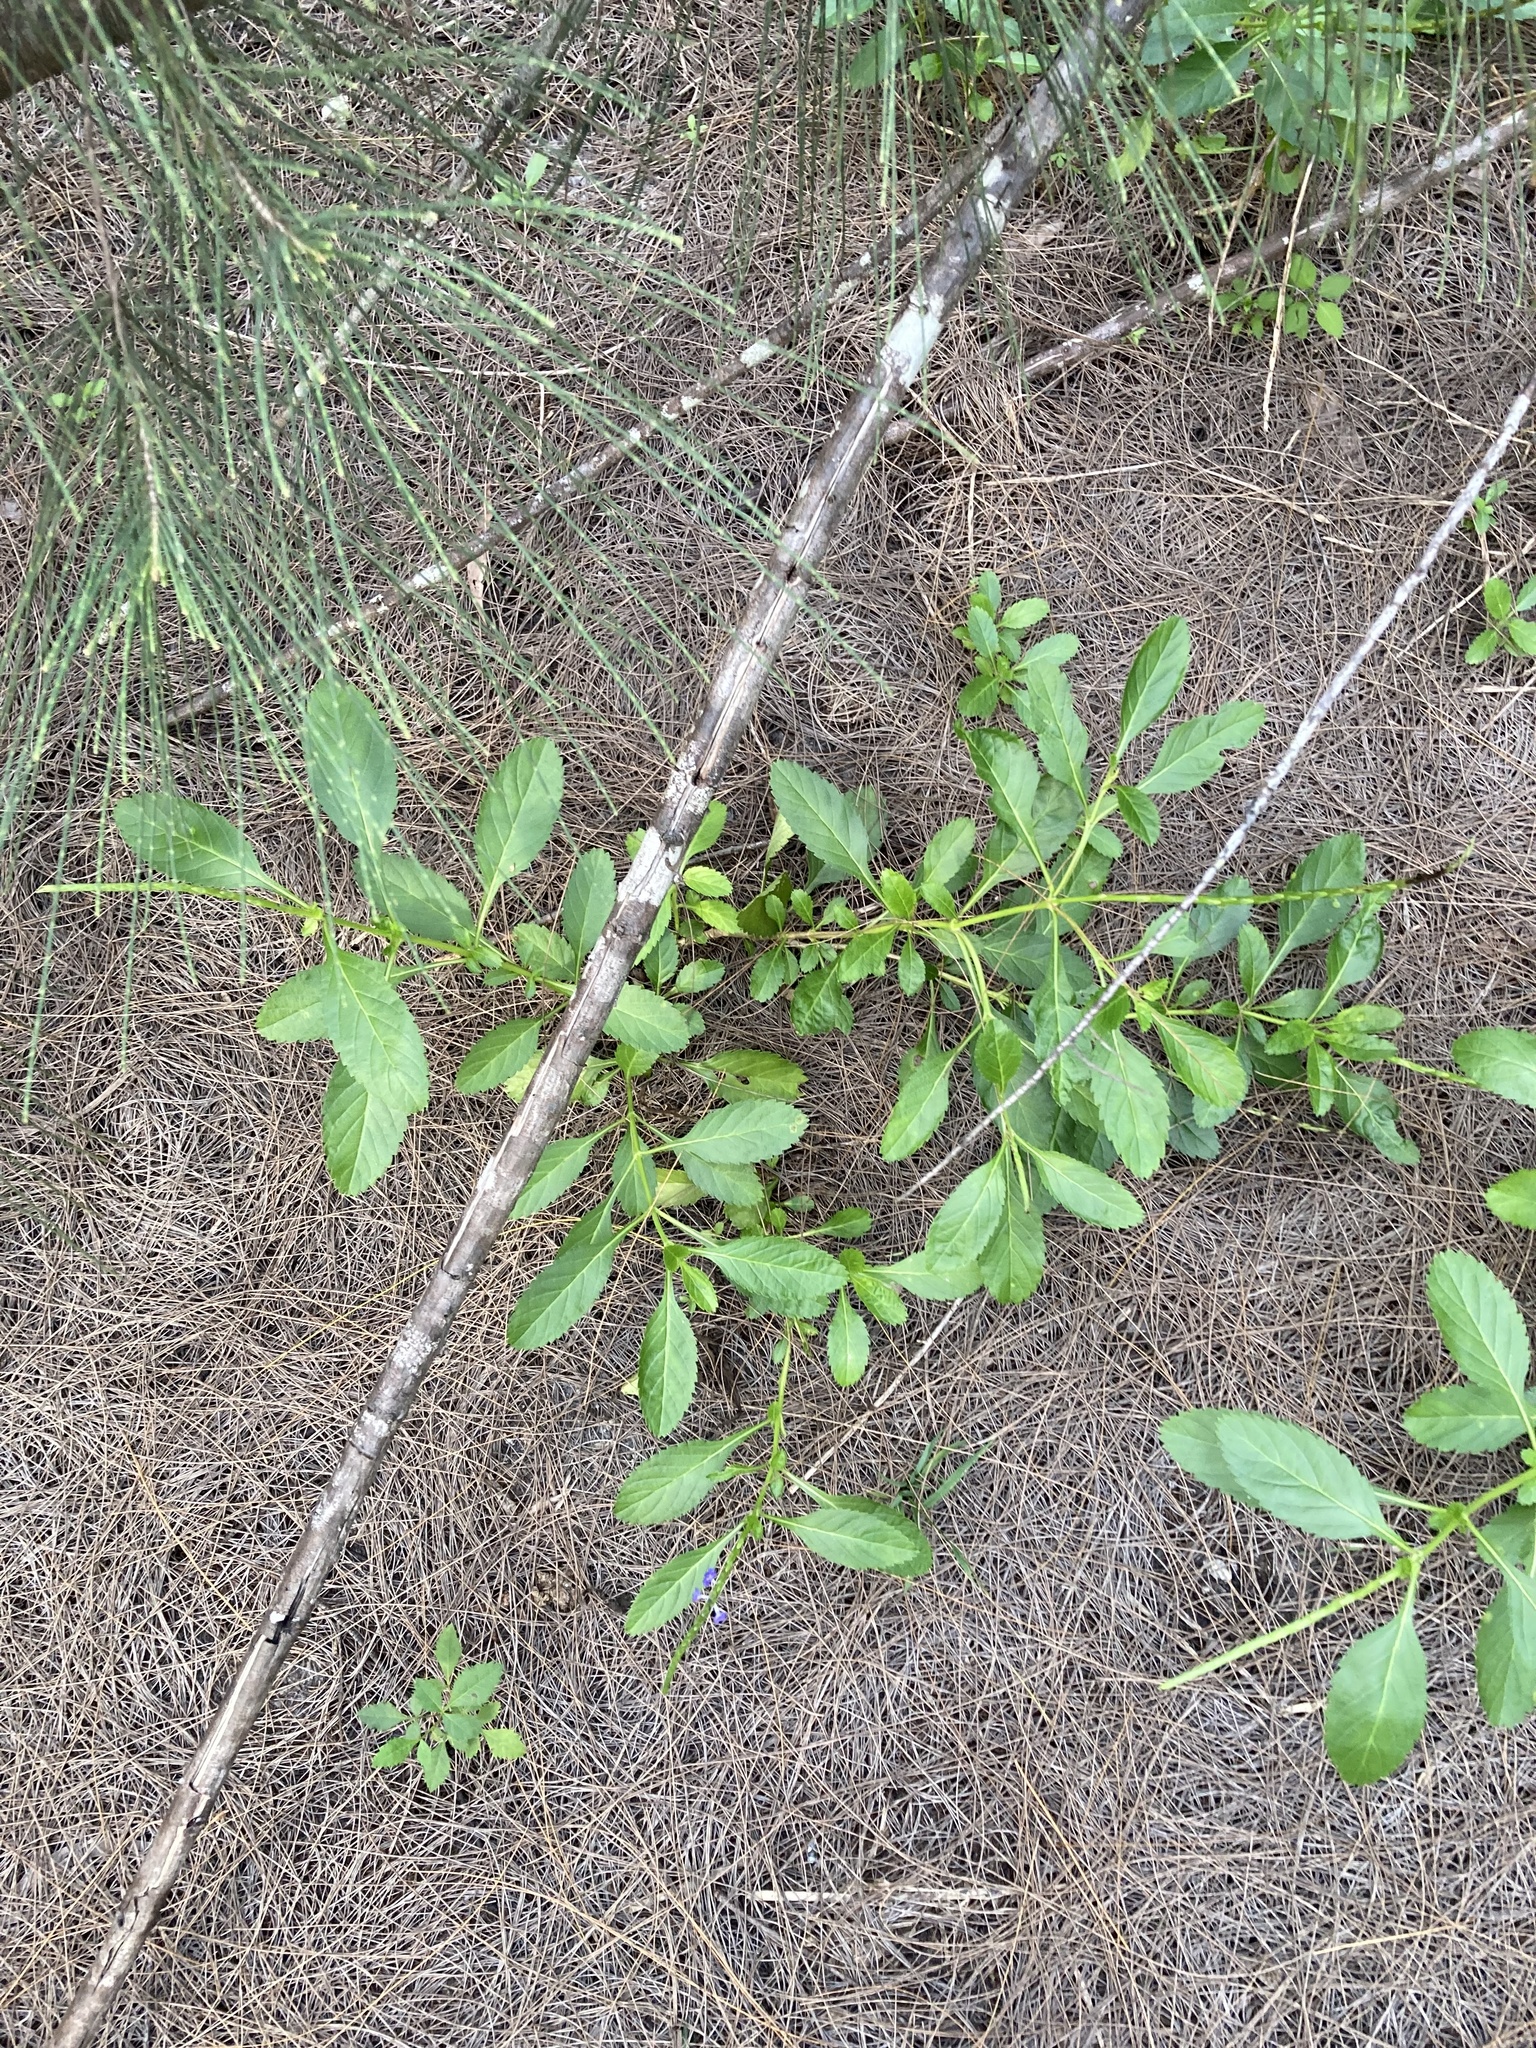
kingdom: Plantae
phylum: Tracheophyta
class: Magnoliopsida
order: Lamiales
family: Verbenaceae
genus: Stachytarpheta
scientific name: Stachytarpheta jamaicensis
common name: Light-blue snakeweed
